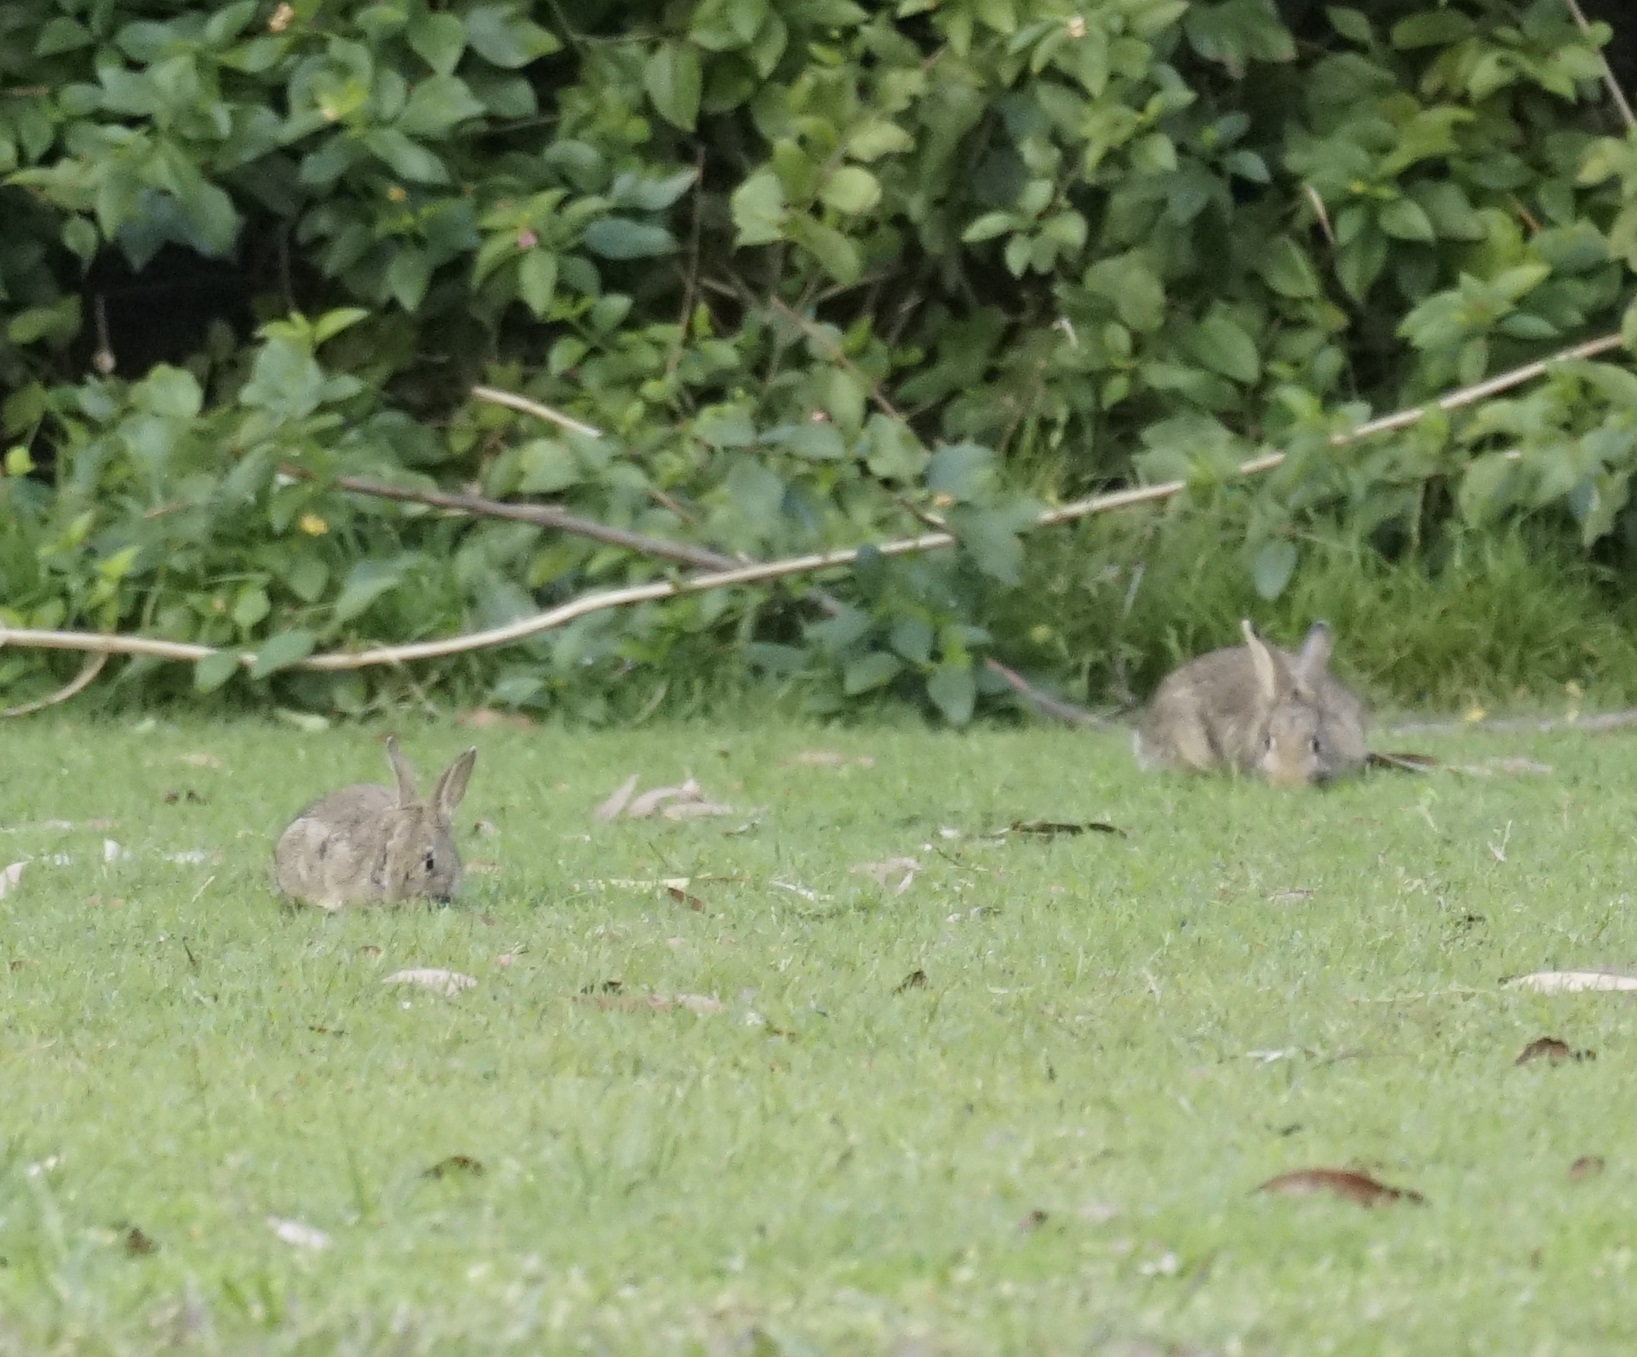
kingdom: Animalia
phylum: Chordata
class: Mammalia
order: Lagomorpha
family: Leporidae
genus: Oryctolagus
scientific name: Oryctolagus cuniculus
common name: European rabbit
